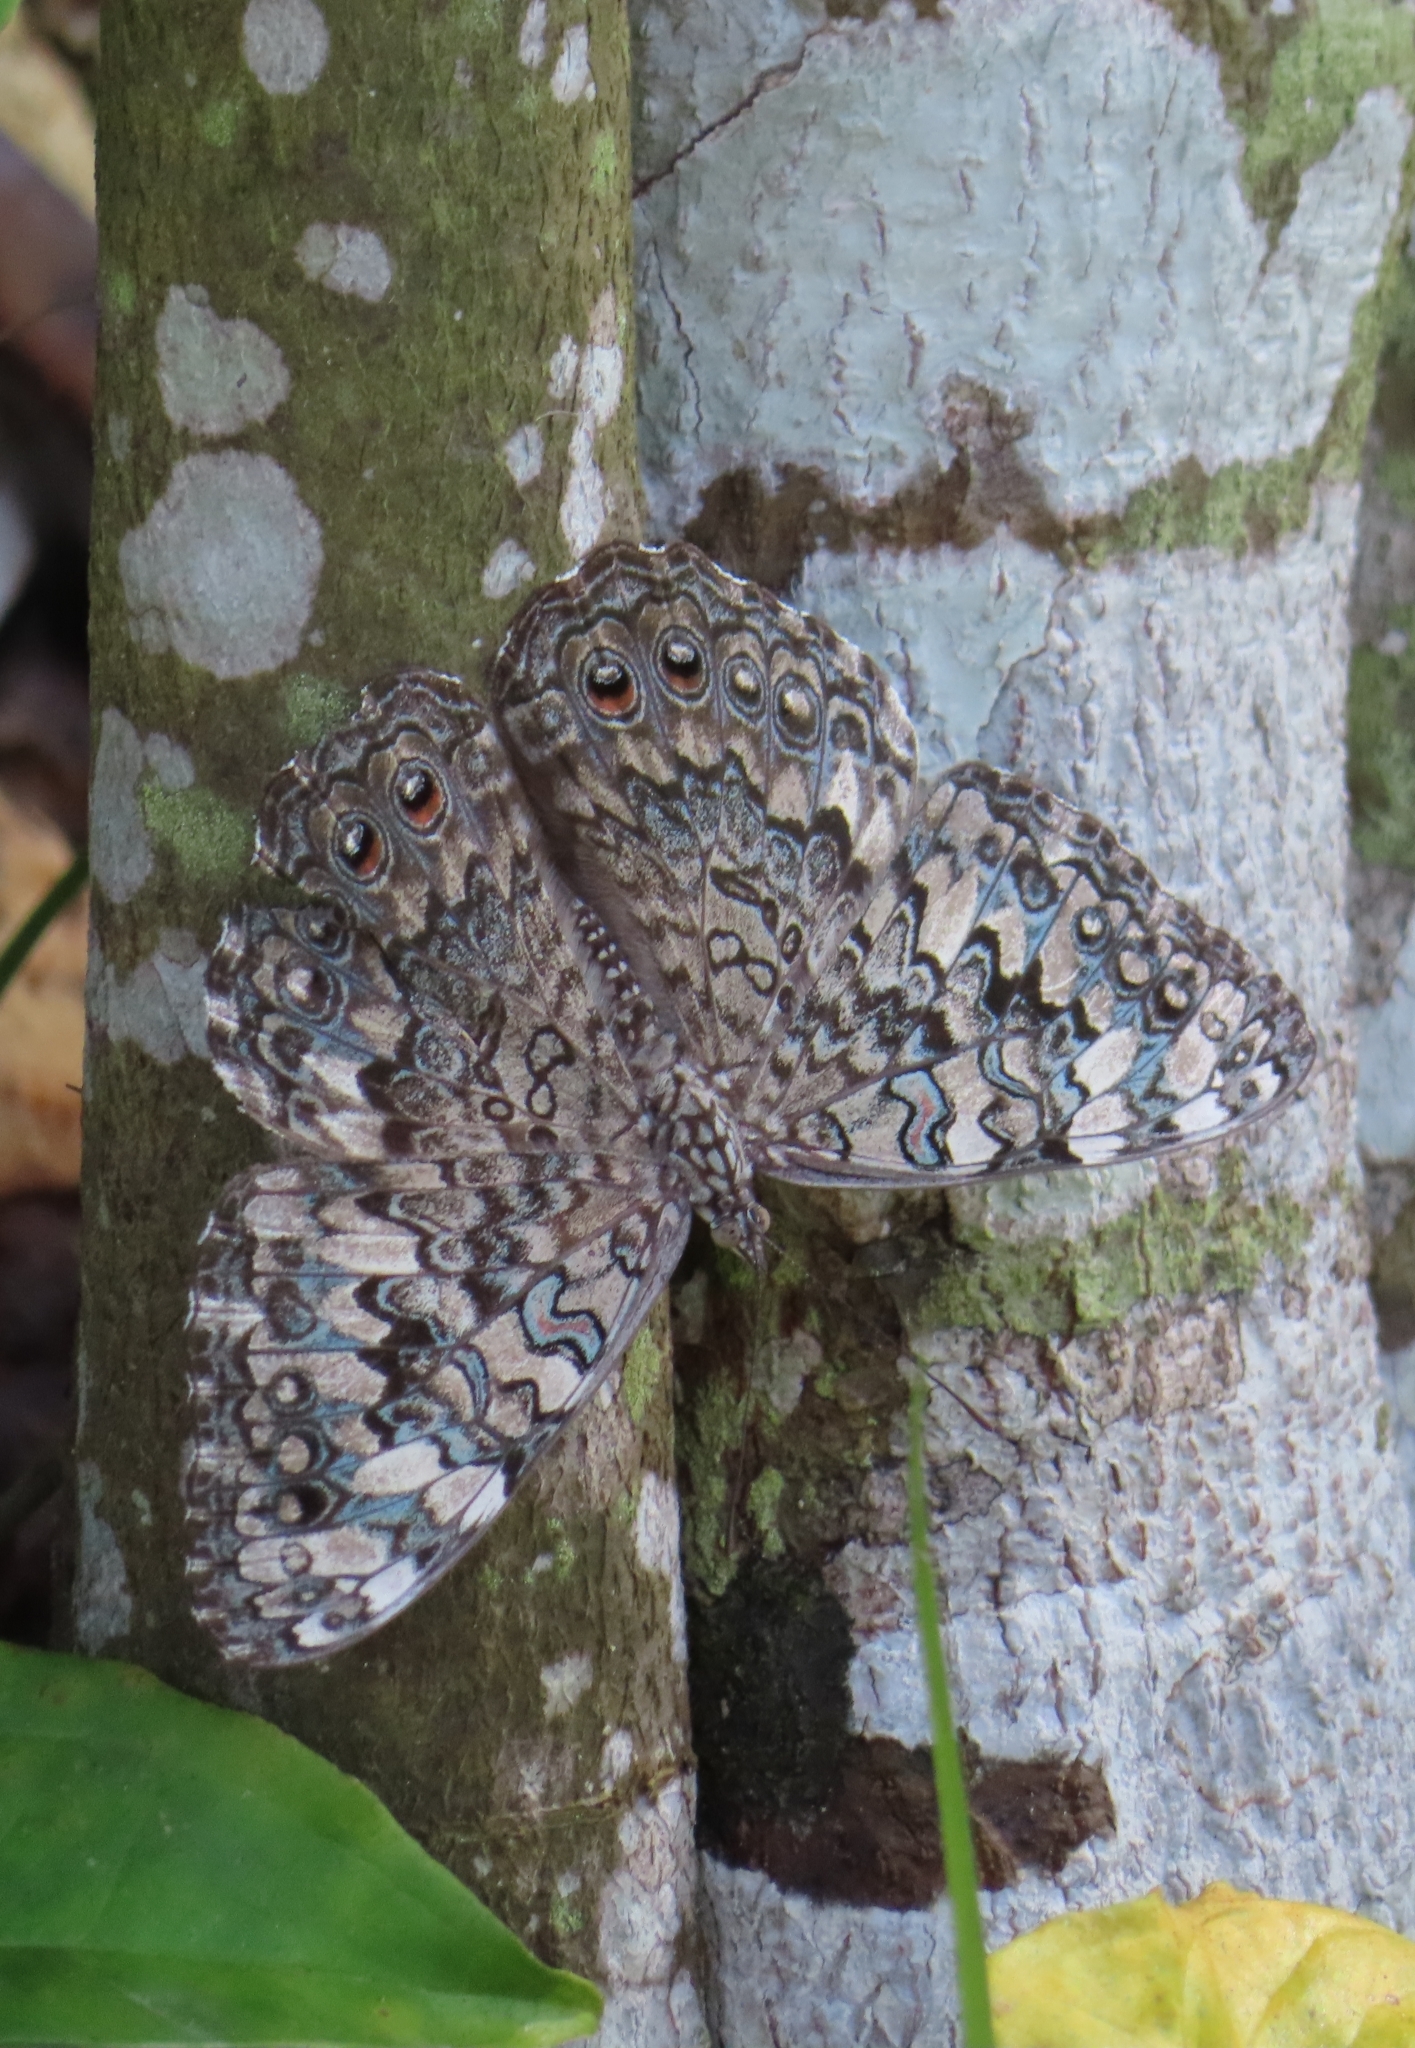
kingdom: Animalia
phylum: Arthropoda
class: Insecta
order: Lepidoptera
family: Nymphalidae
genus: Hamadryas
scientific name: Hamadryas februa
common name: Gray cracker
